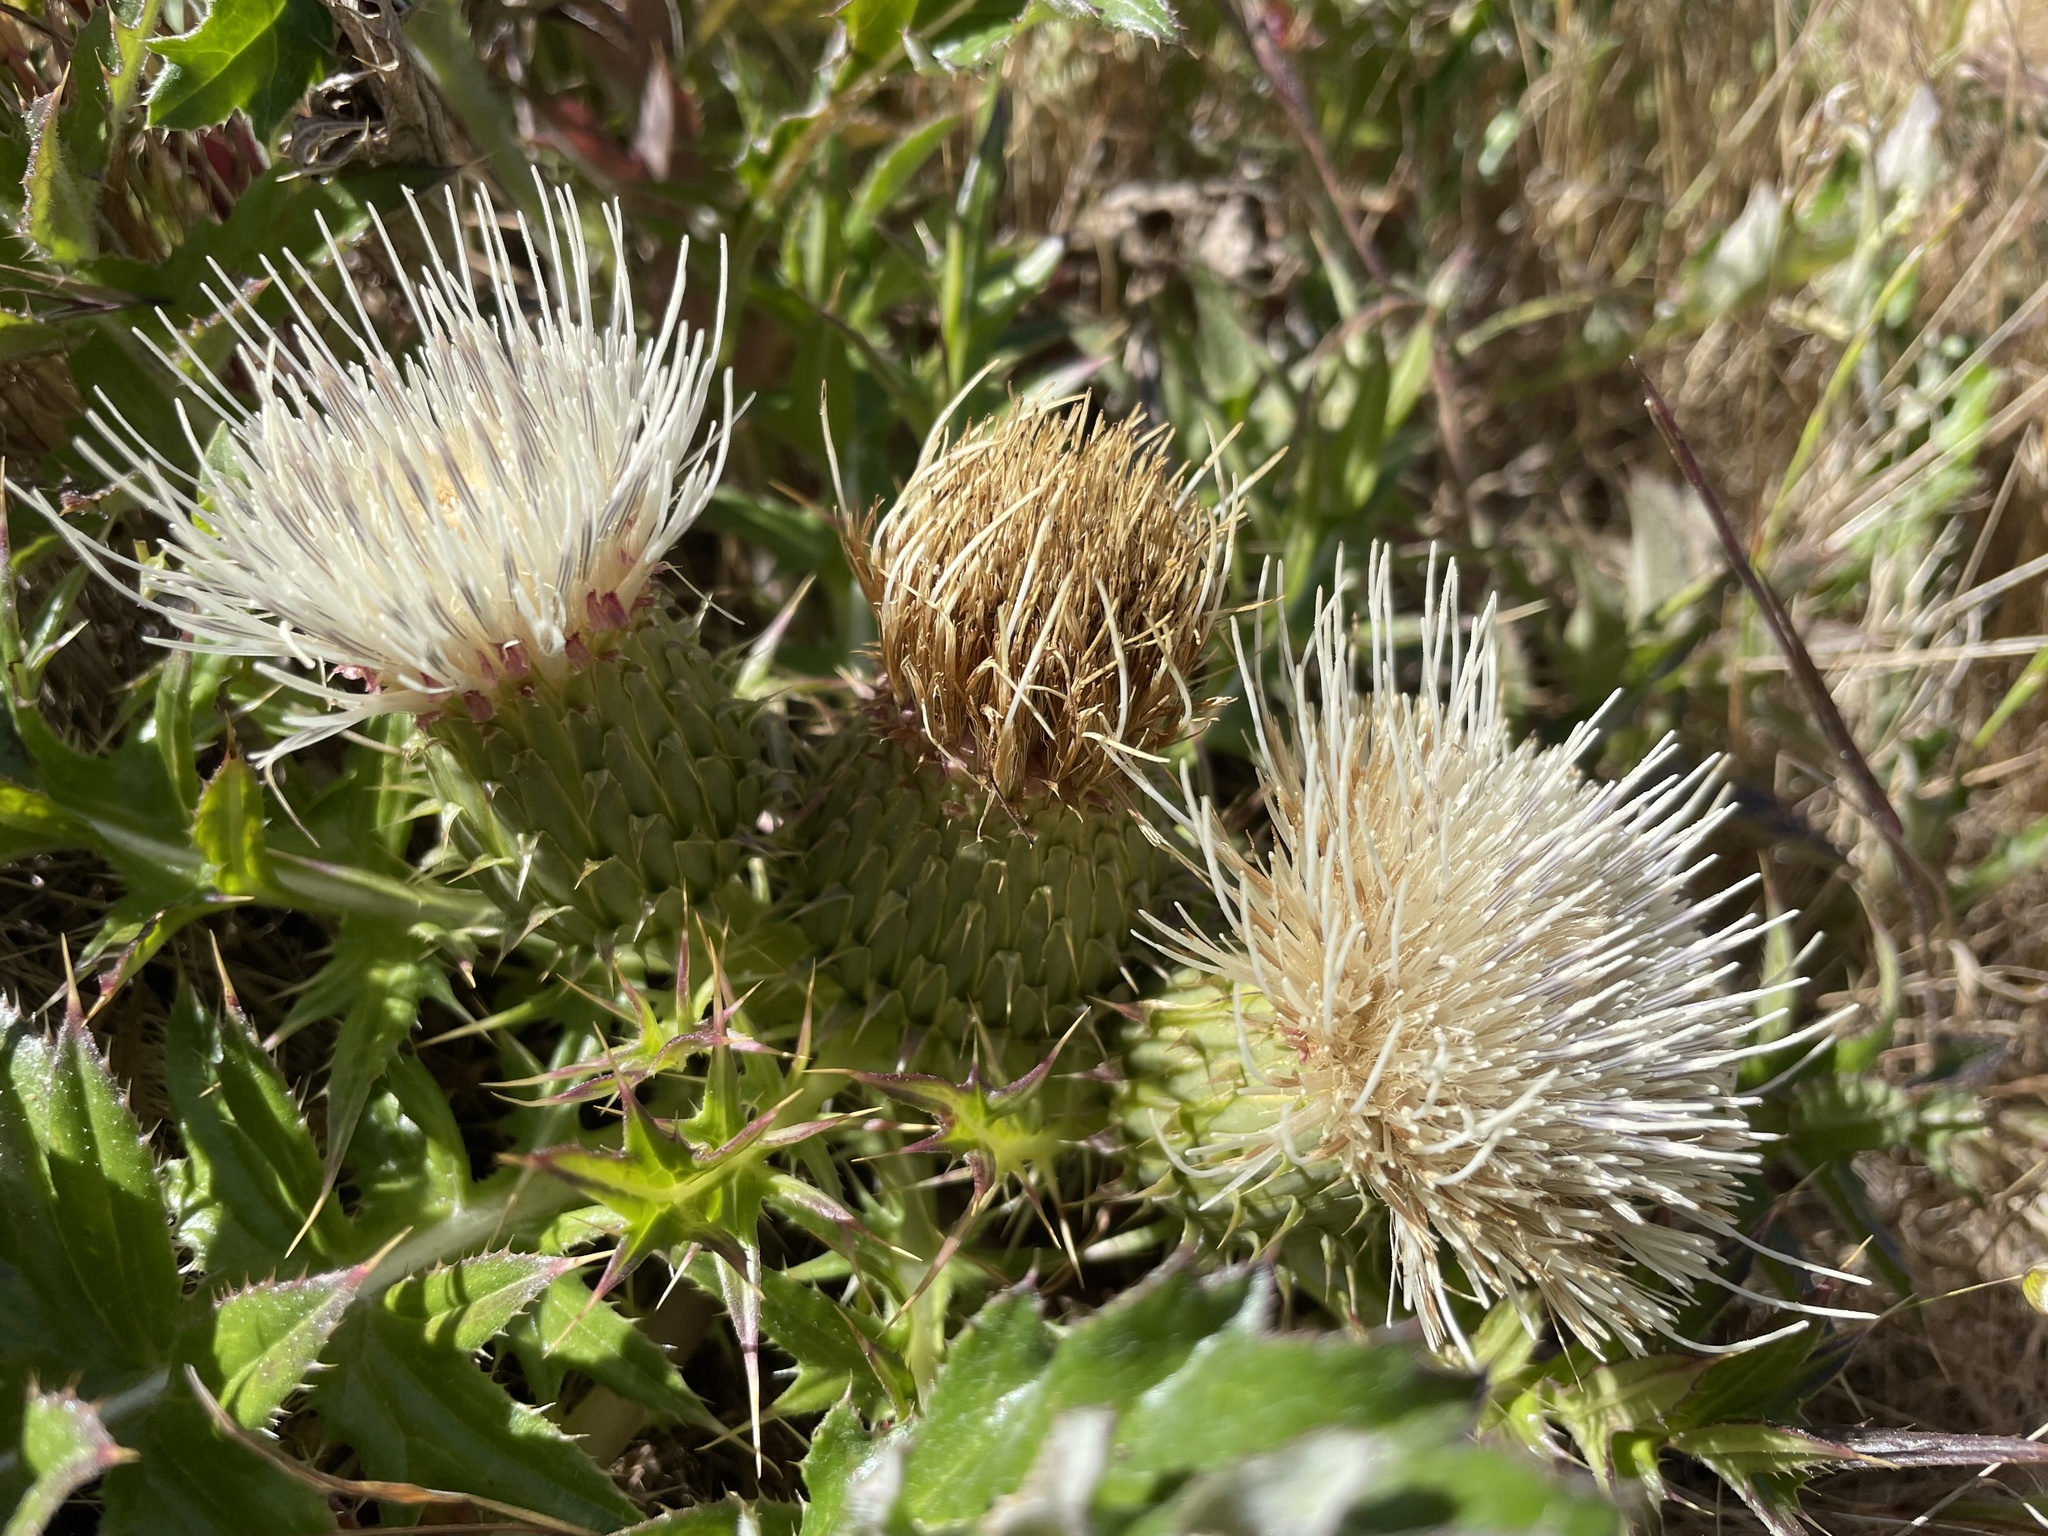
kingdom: Plantae
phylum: Tracheophyta
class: Magnoliopsida
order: Asterales
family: Asteraceae
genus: Cirsium
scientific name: Cirsium quercetorum
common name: Alameda county thistle
